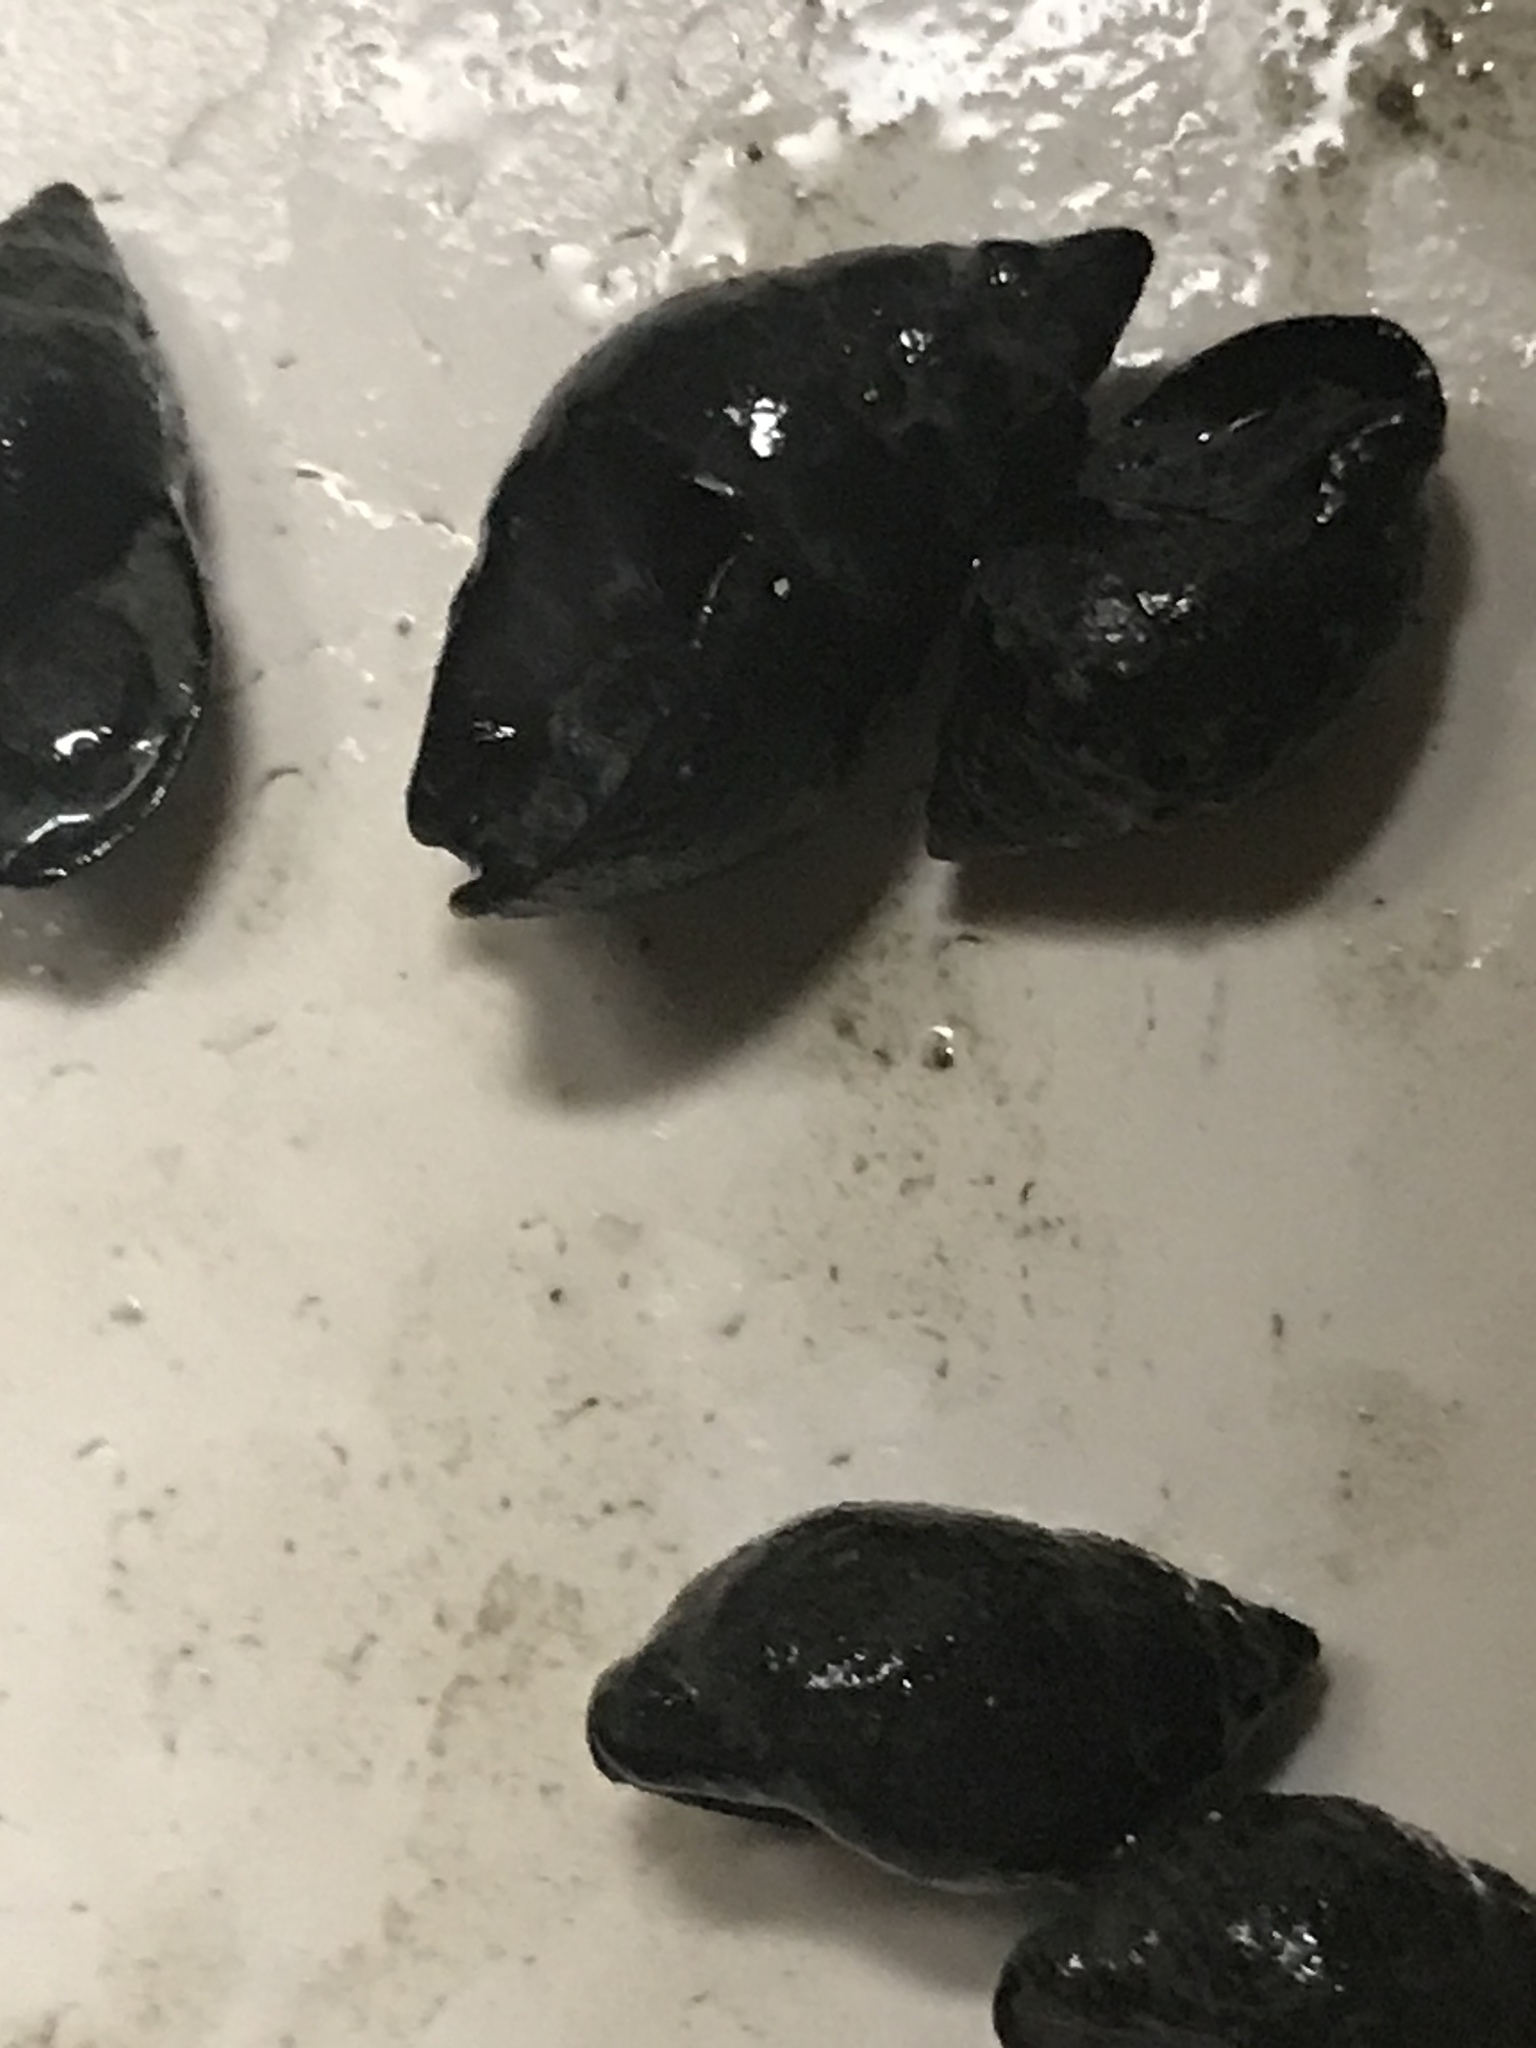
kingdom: Animalia
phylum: Mollusca
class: Gastropoda
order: Neogastropoda
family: Nassariidae
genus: Ilyanassa
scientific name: Ilyanassa obsoleta
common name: Eastern mudsnail
